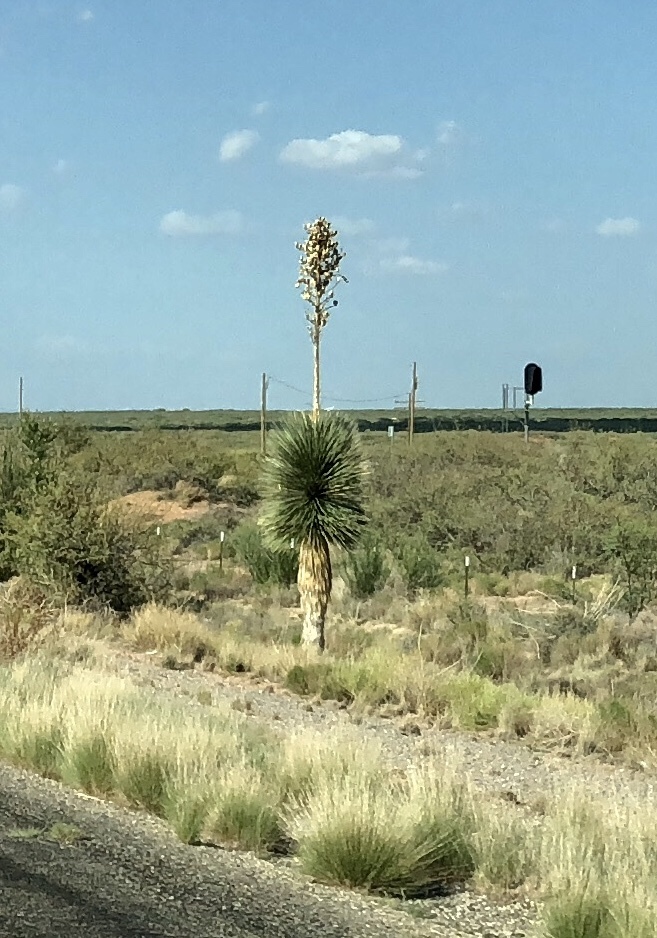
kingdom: Plantae
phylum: Tracheophyta
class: Liliopsida
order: Asparagales
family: Asparagaceae
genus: Yucca
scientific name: Yucca elata
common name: Palmella
